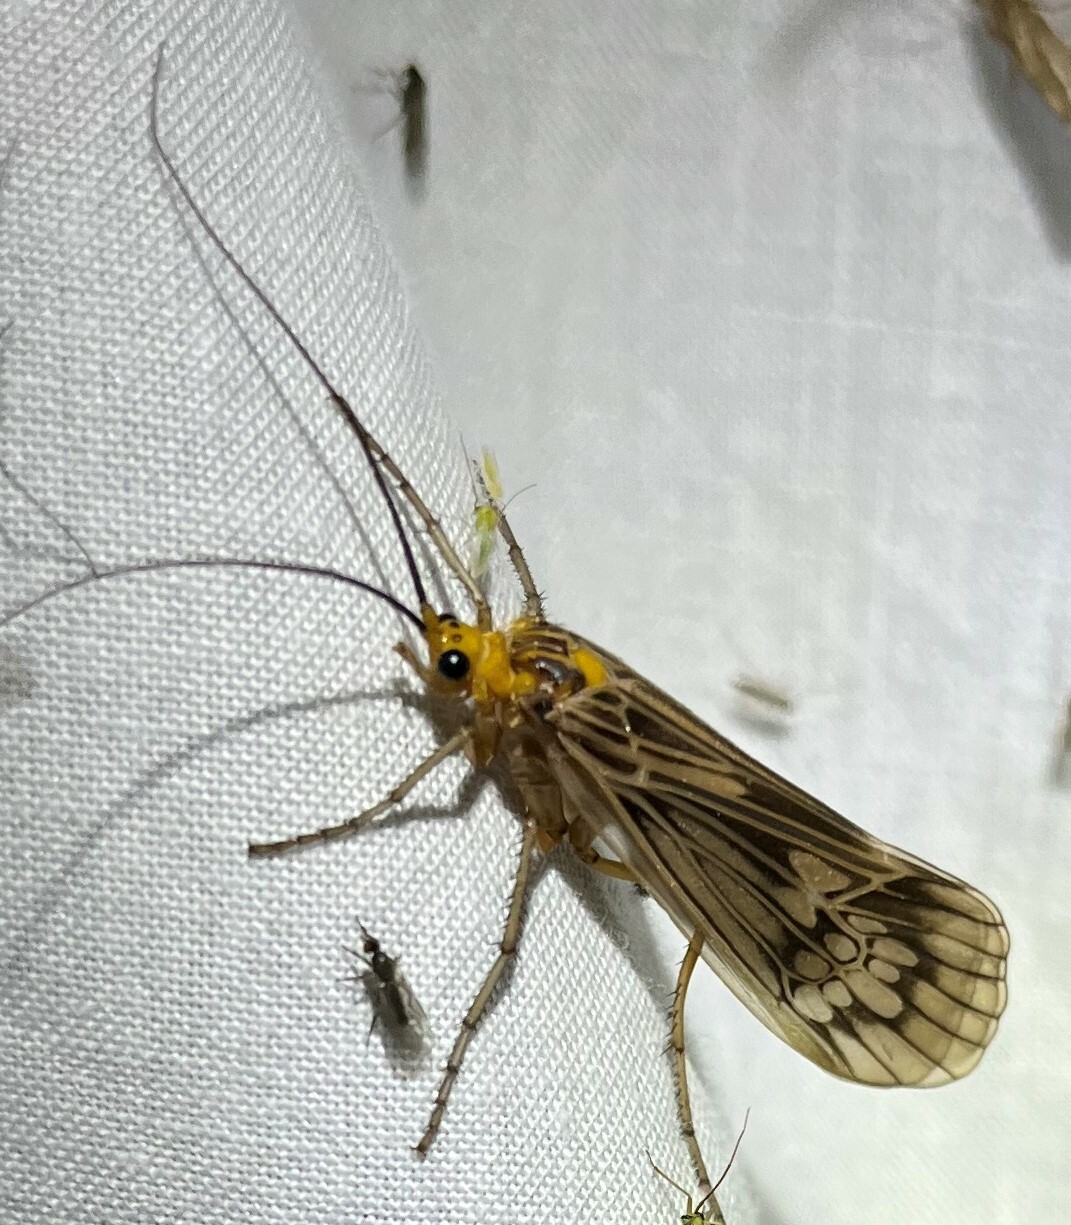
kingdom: Animalia
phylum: Arthropoda
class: Insecta
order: Trichoptera
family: Limnephilidae
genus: Hydatophylax
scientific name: Hydatophylax argus
